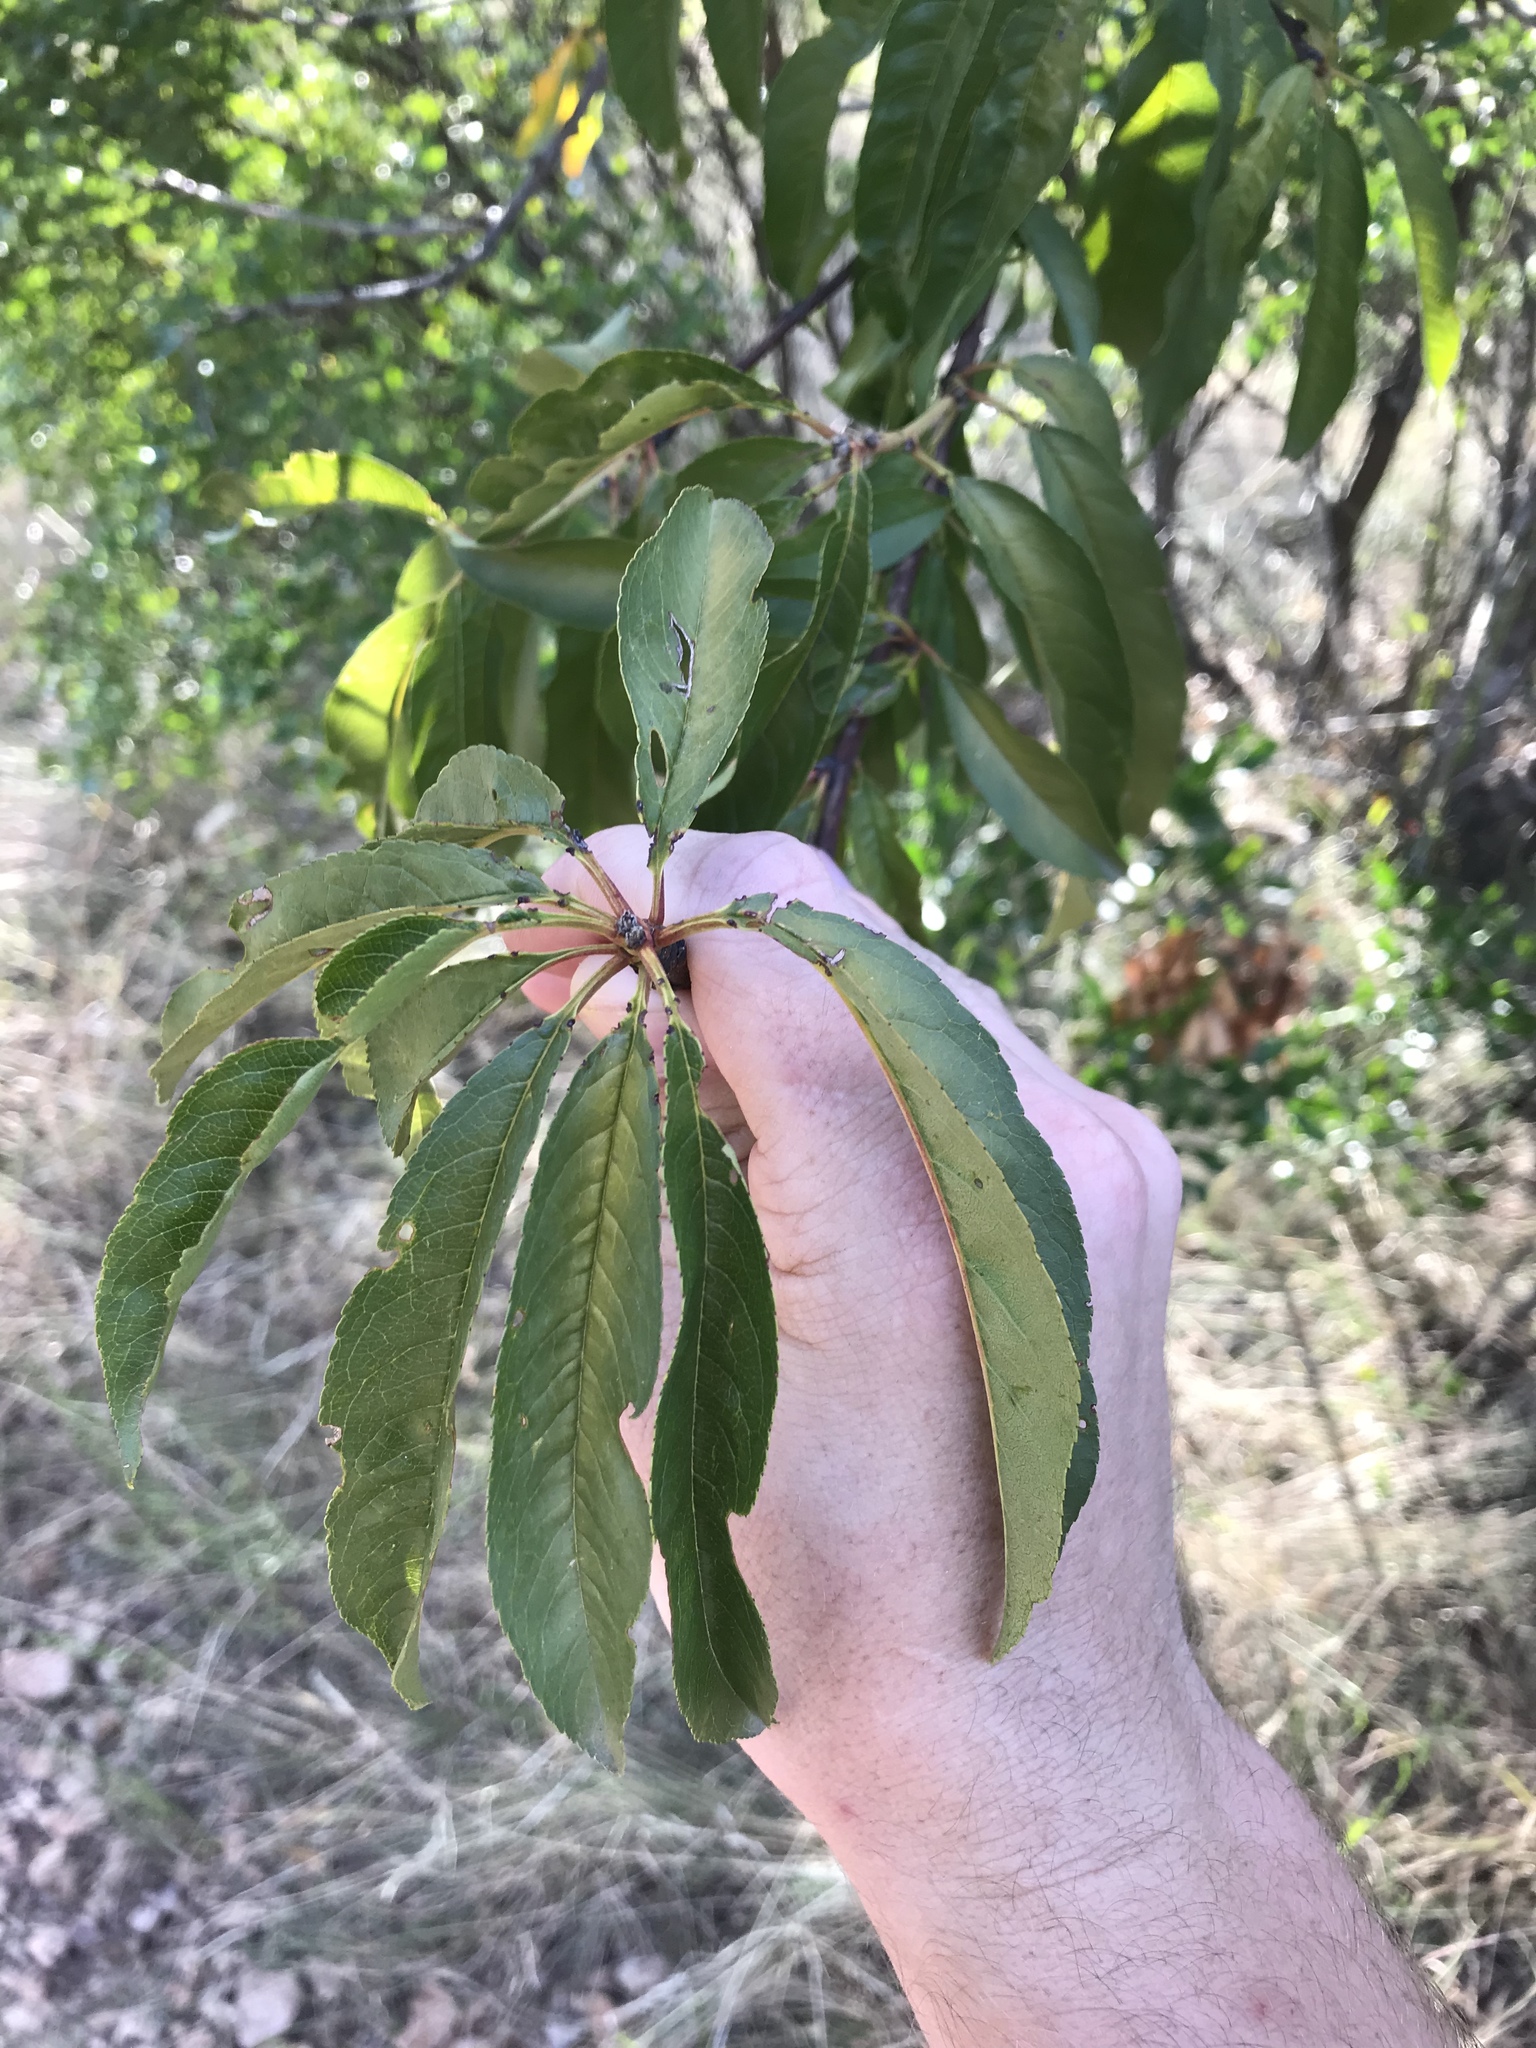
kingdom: Plantae
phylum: Tracheophyta
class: Magnoliopsida
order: Rosales
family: Rosaceae
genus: Prunus
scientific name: Prunus persica
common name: Peach
